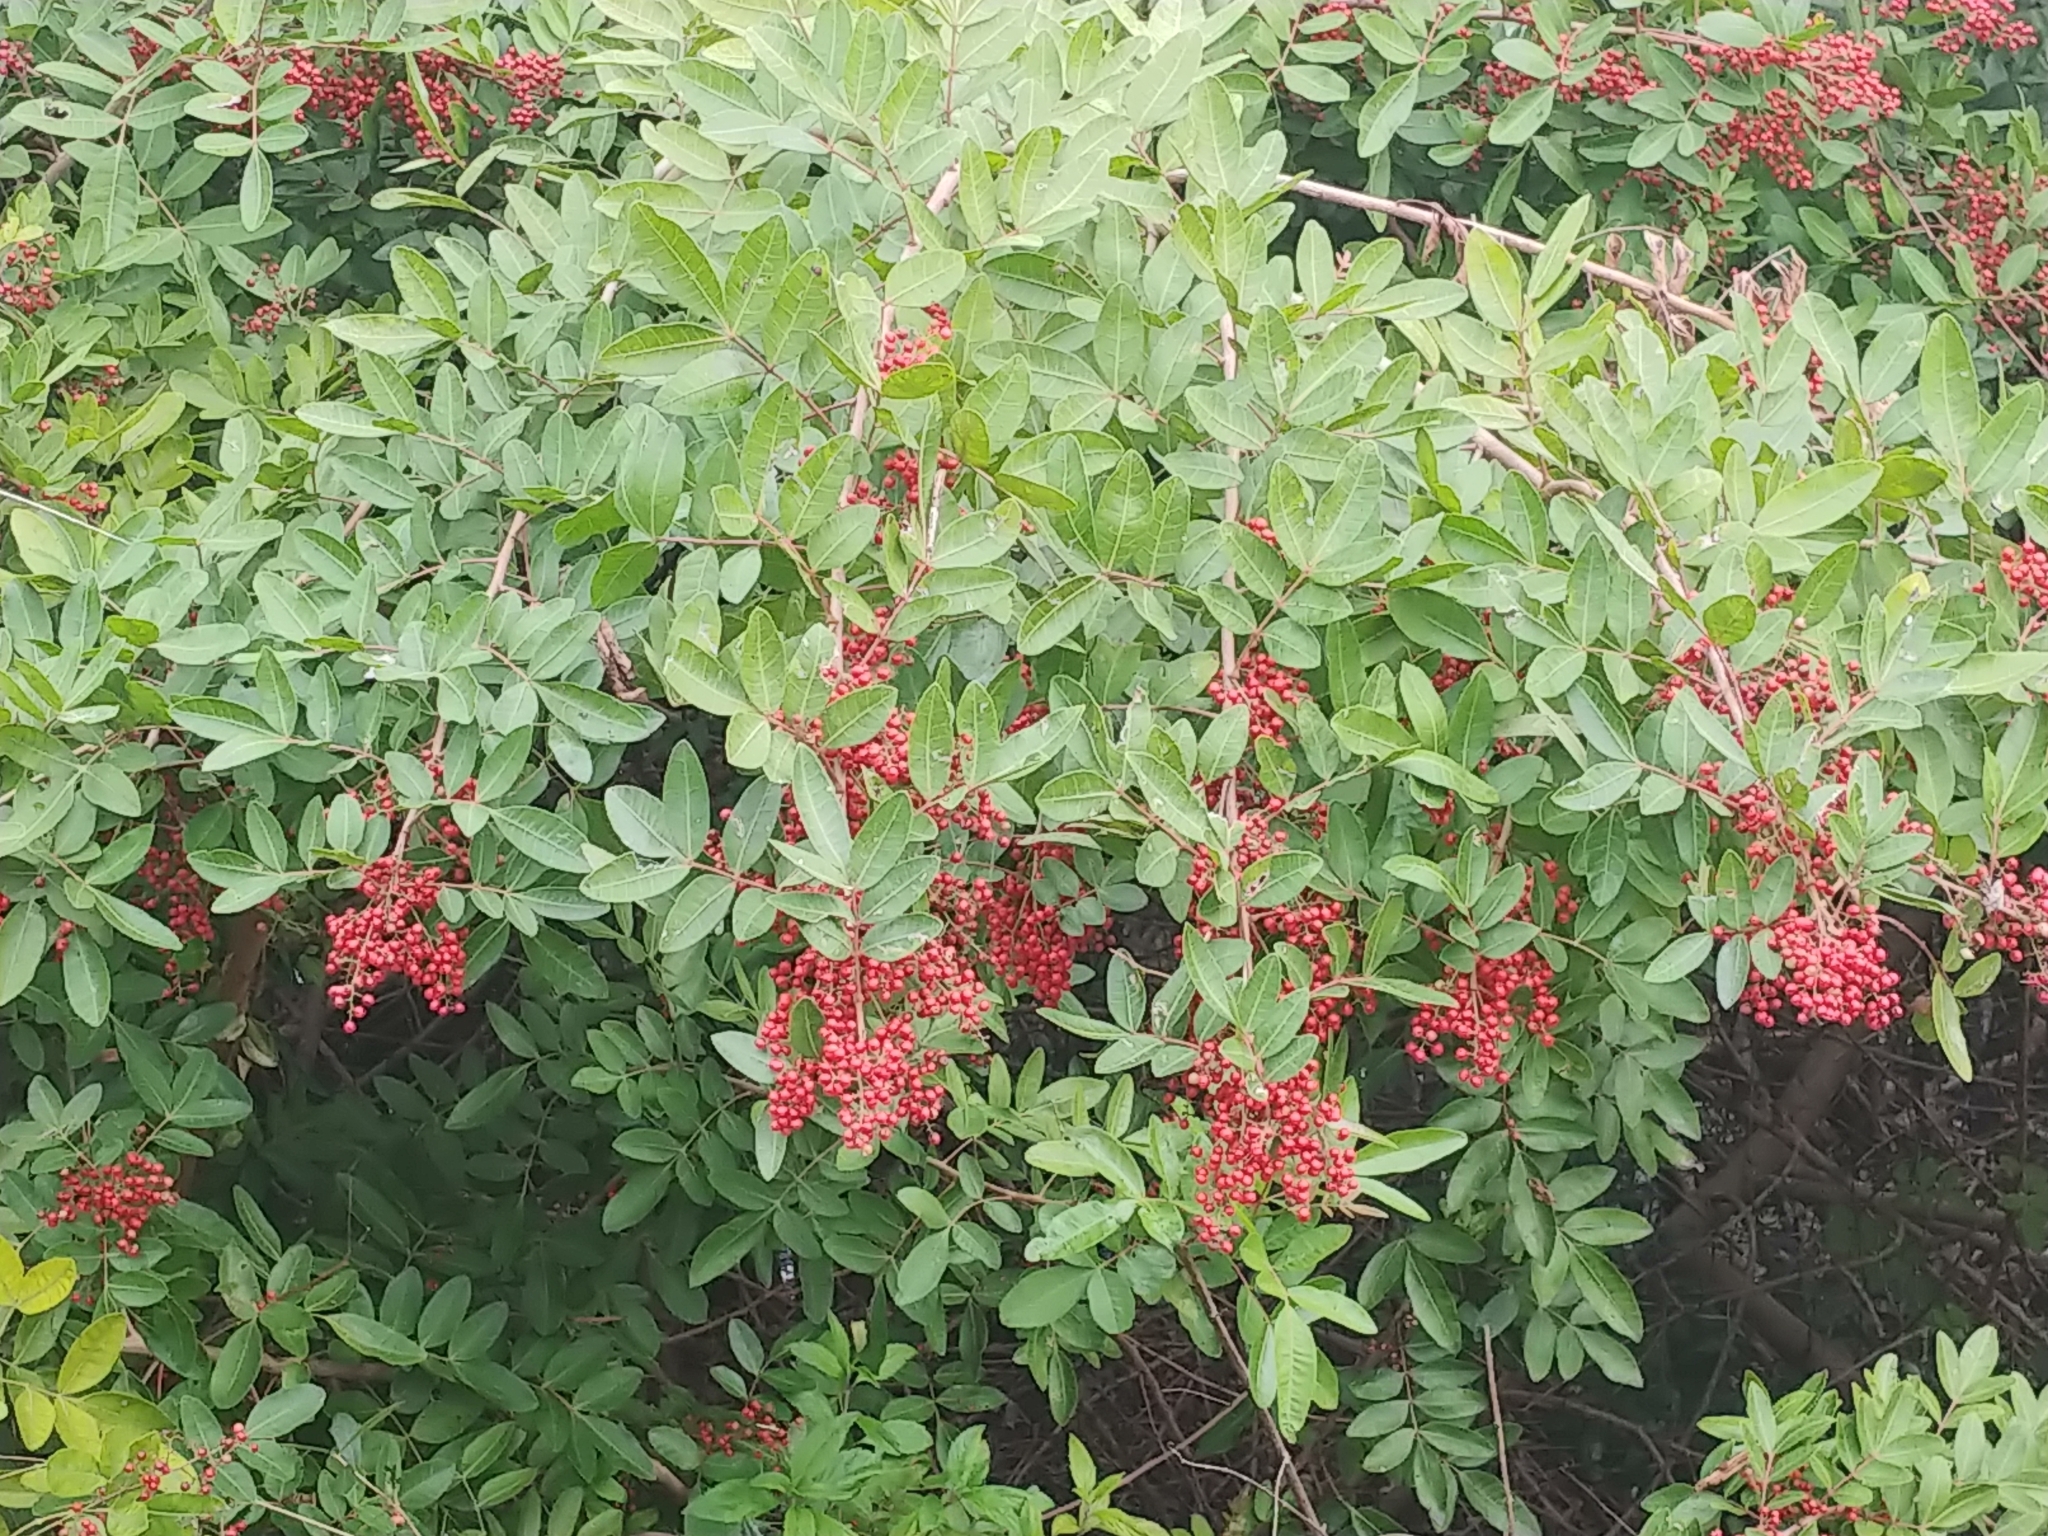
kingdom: Plantae
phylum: Tracheophyta
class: Magnoliopsida
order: Sapindales
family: Anacardiaceae
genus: Schinus
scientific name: Schinus terebinthifolia
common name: Brazilian peppertree
